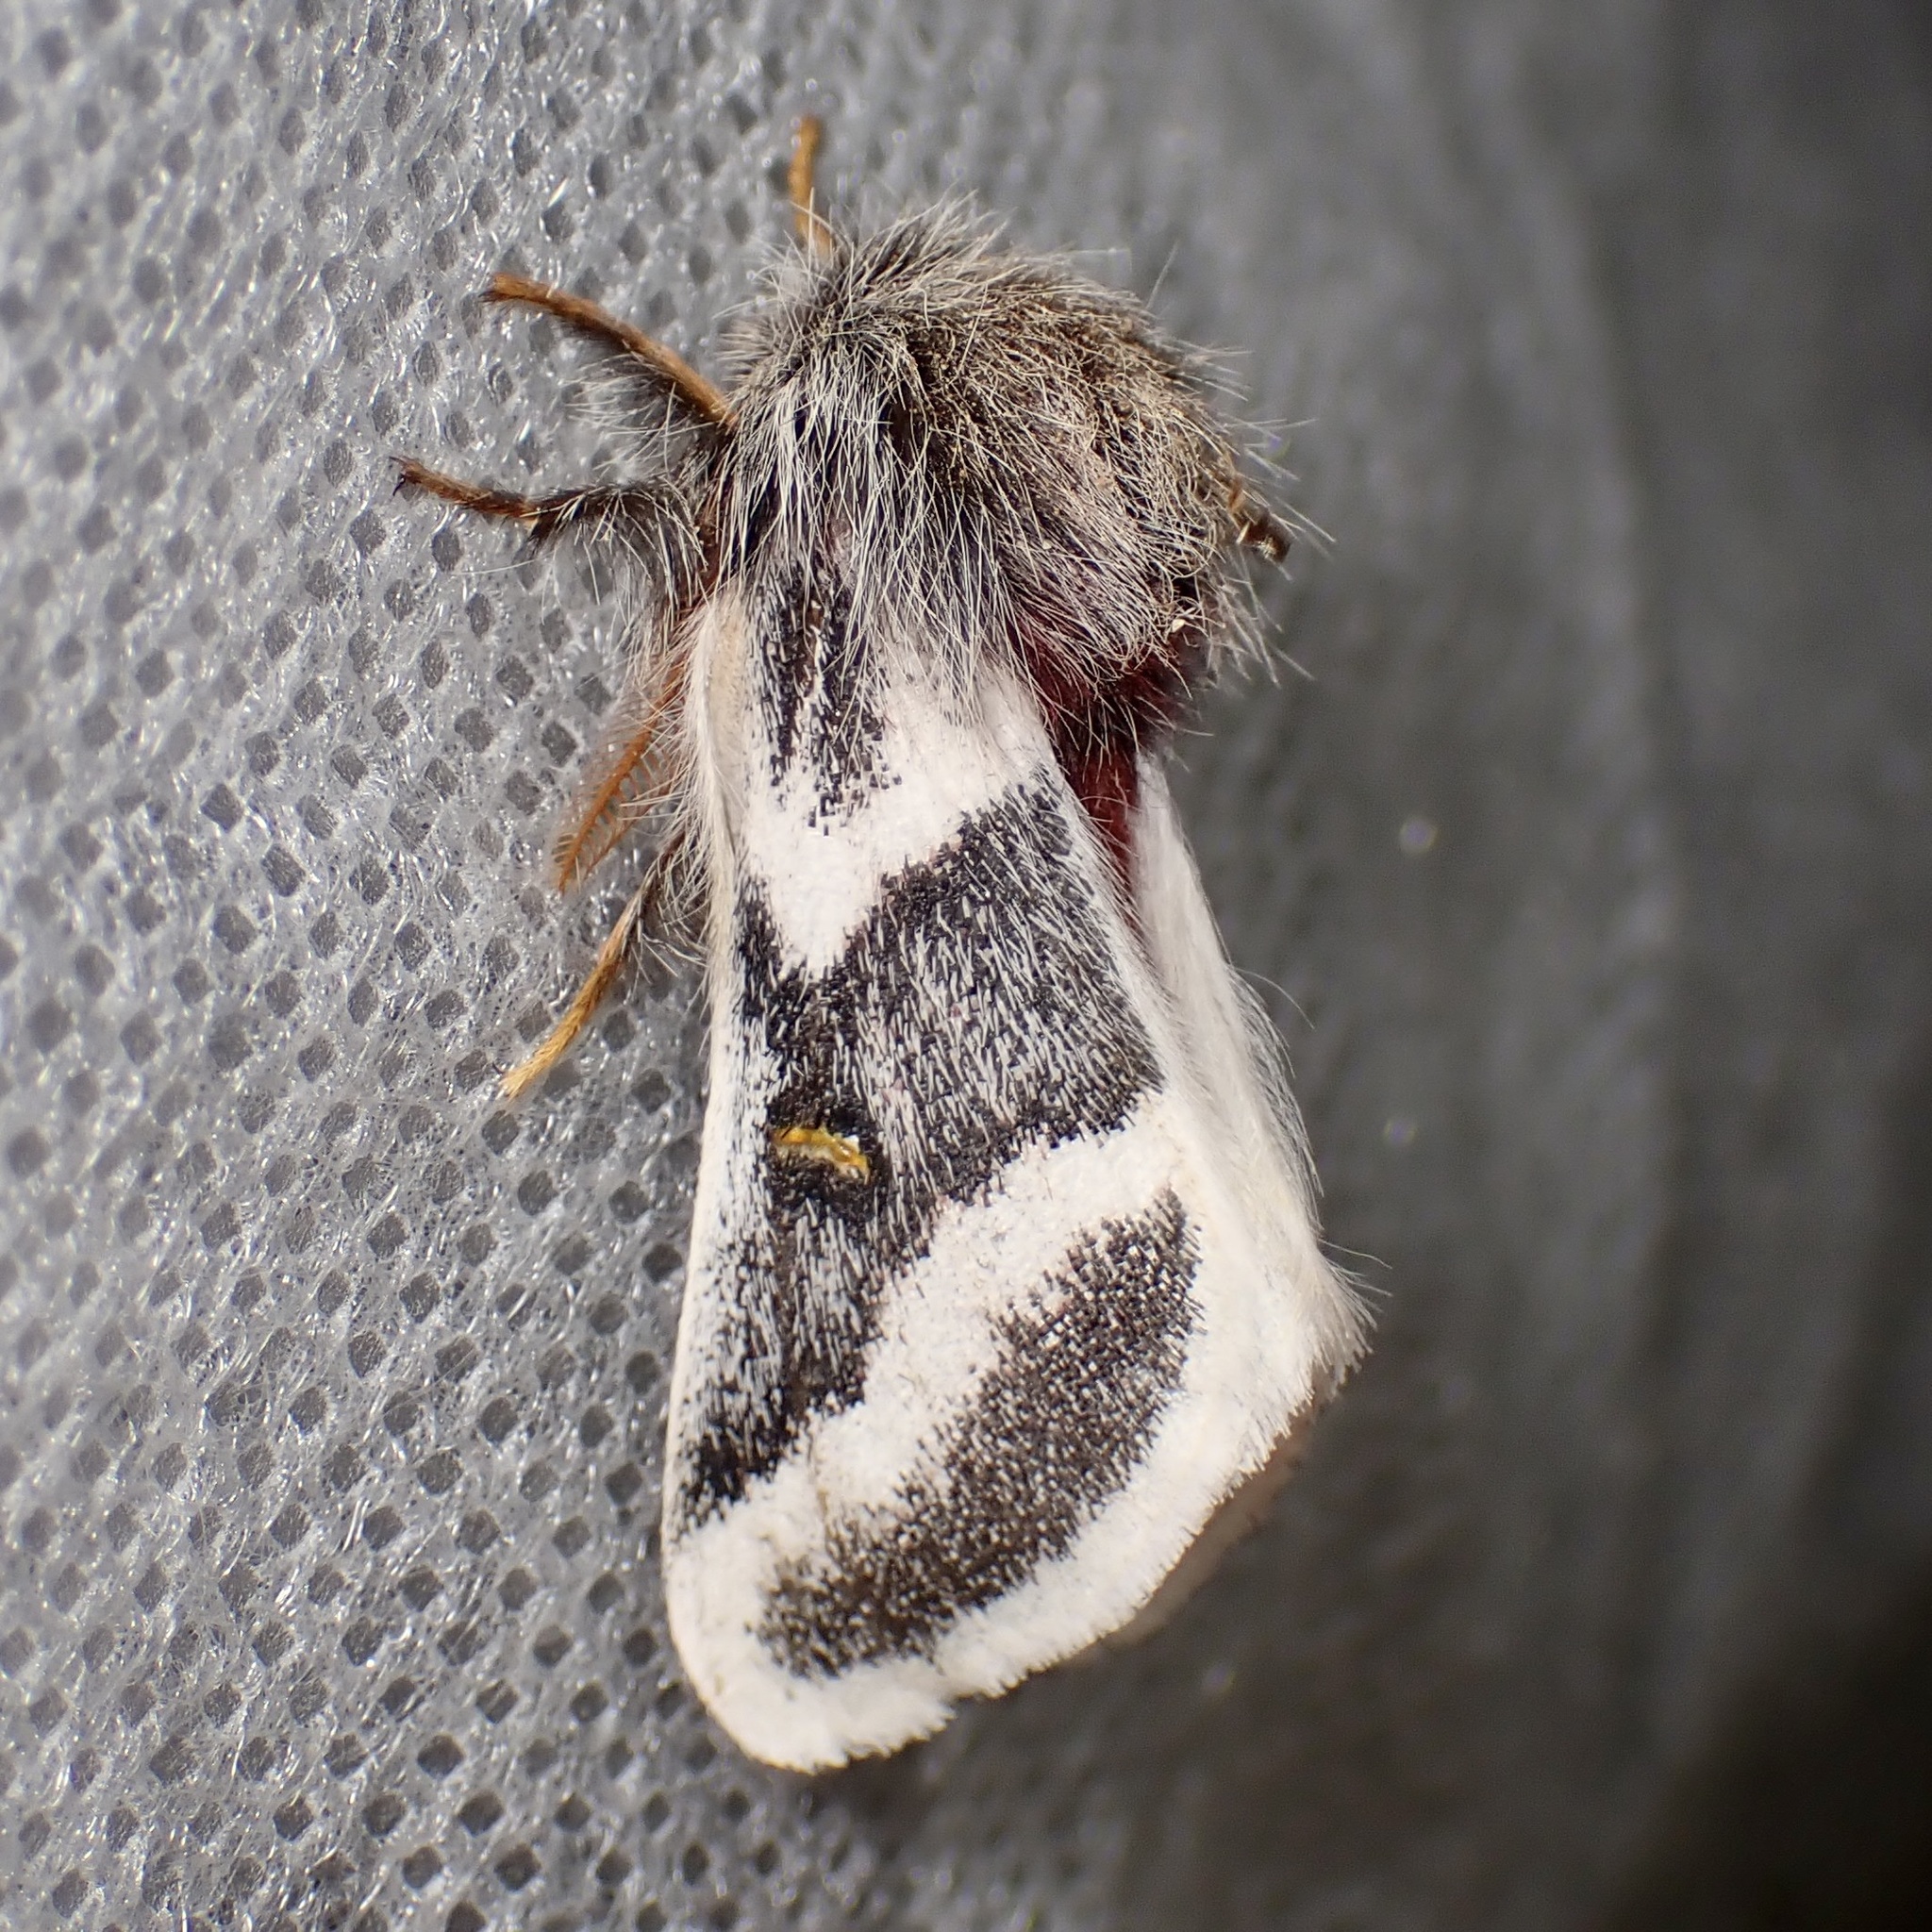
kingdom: Animalia
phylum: Arthropoda
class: Insecta
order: Lepidoptera
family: Saturniidae
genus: Hemileuca
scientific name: Hemileuca tricolor
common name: Tricolor buckmoth
